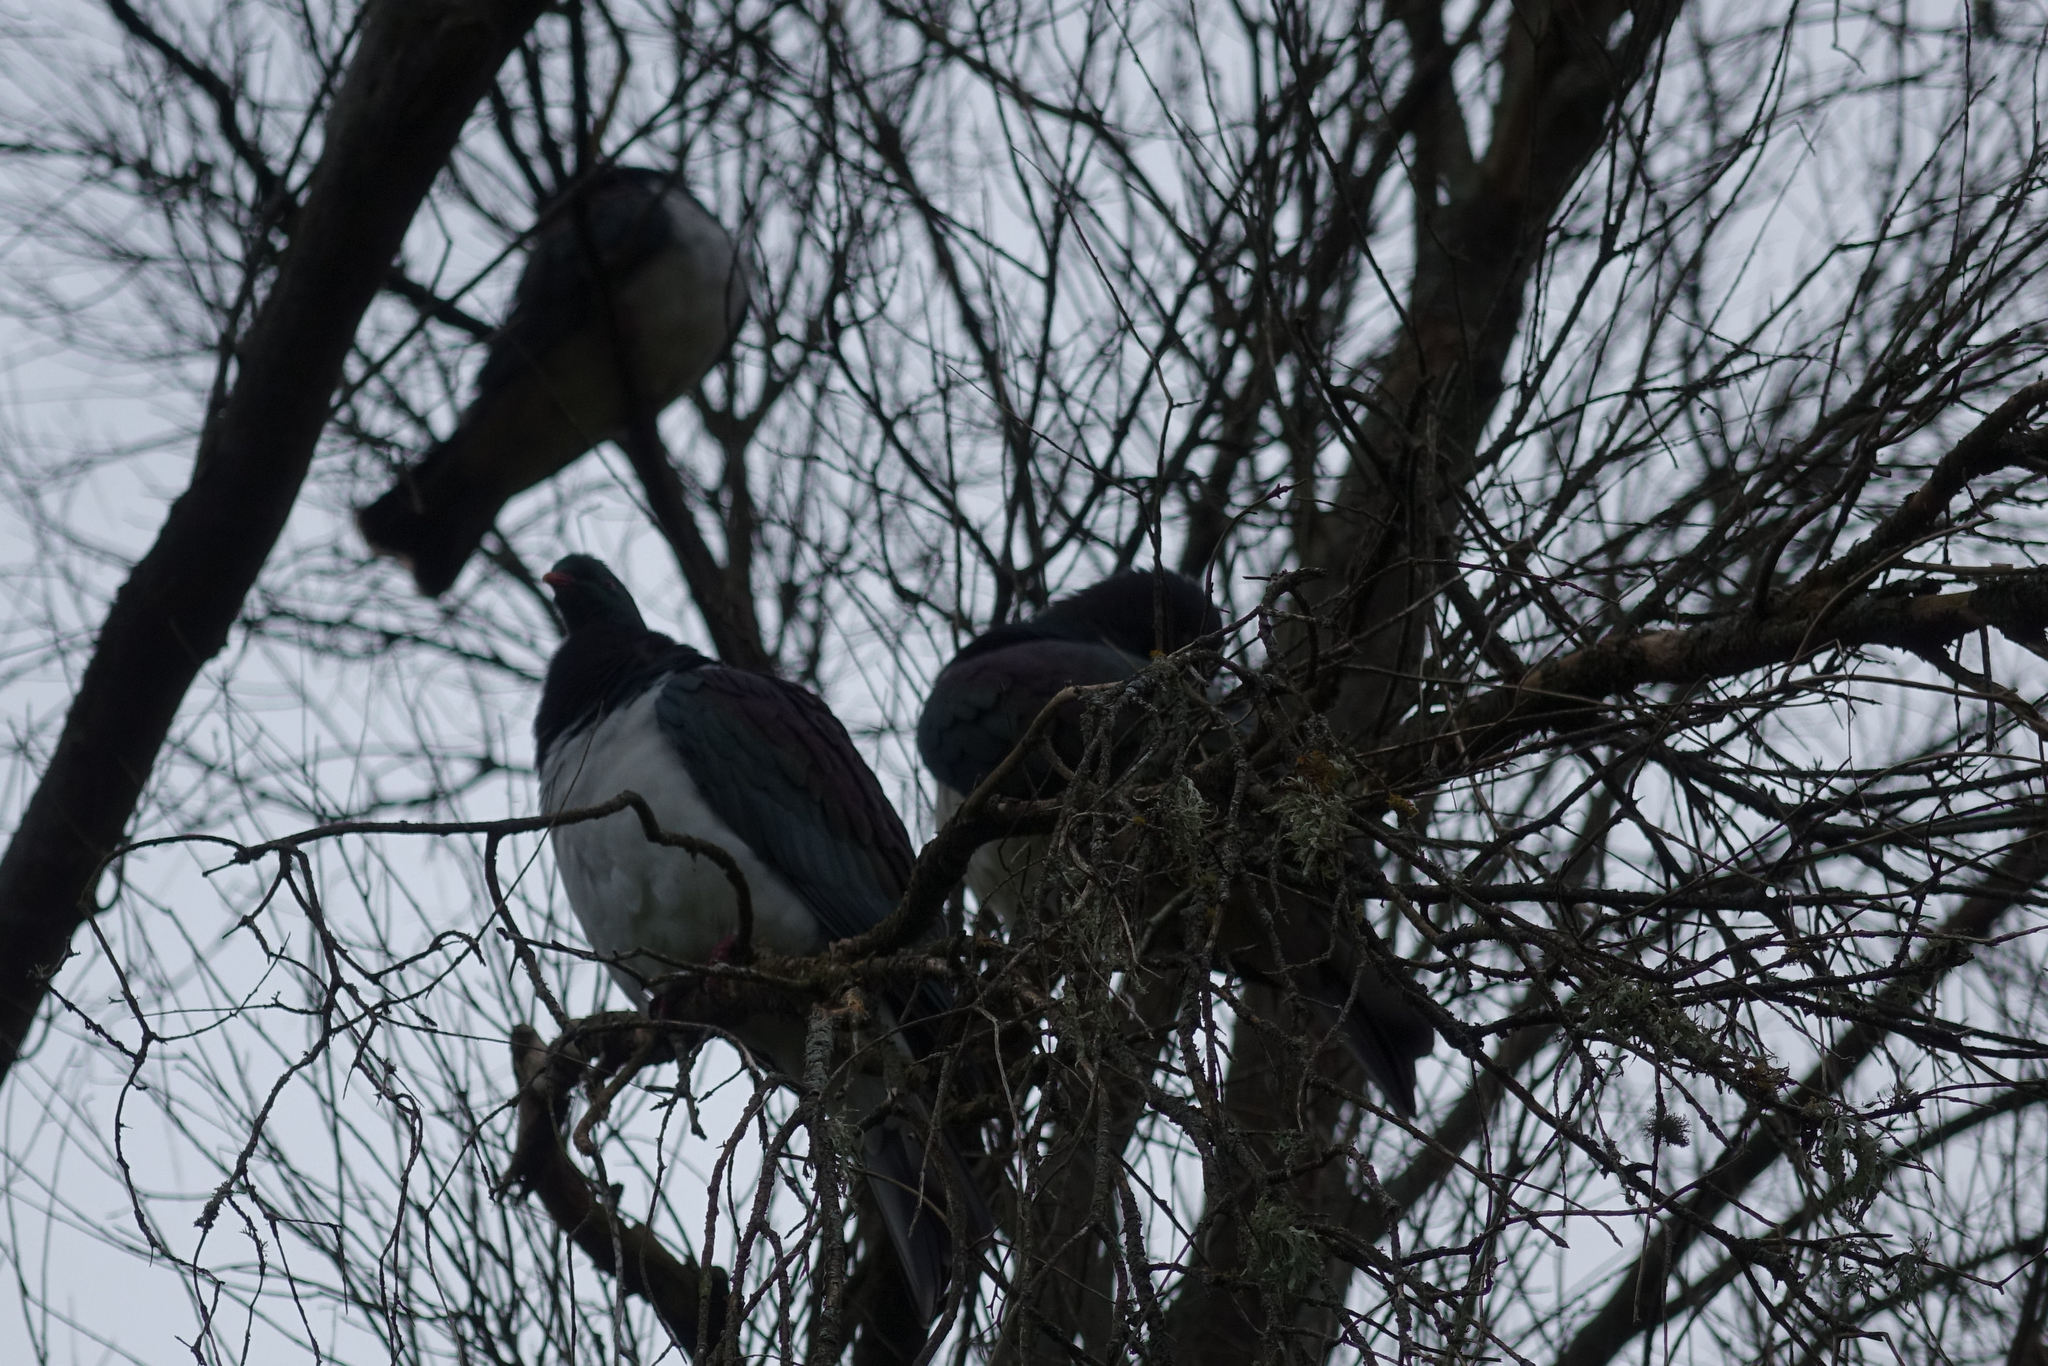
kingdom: Animalia
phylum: Chordata
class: Aves
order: Columbiformes
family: Columbidae
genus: Hemiphaga
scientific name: Hemiphaga novaeseelandiae
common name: New zealand pigeon
